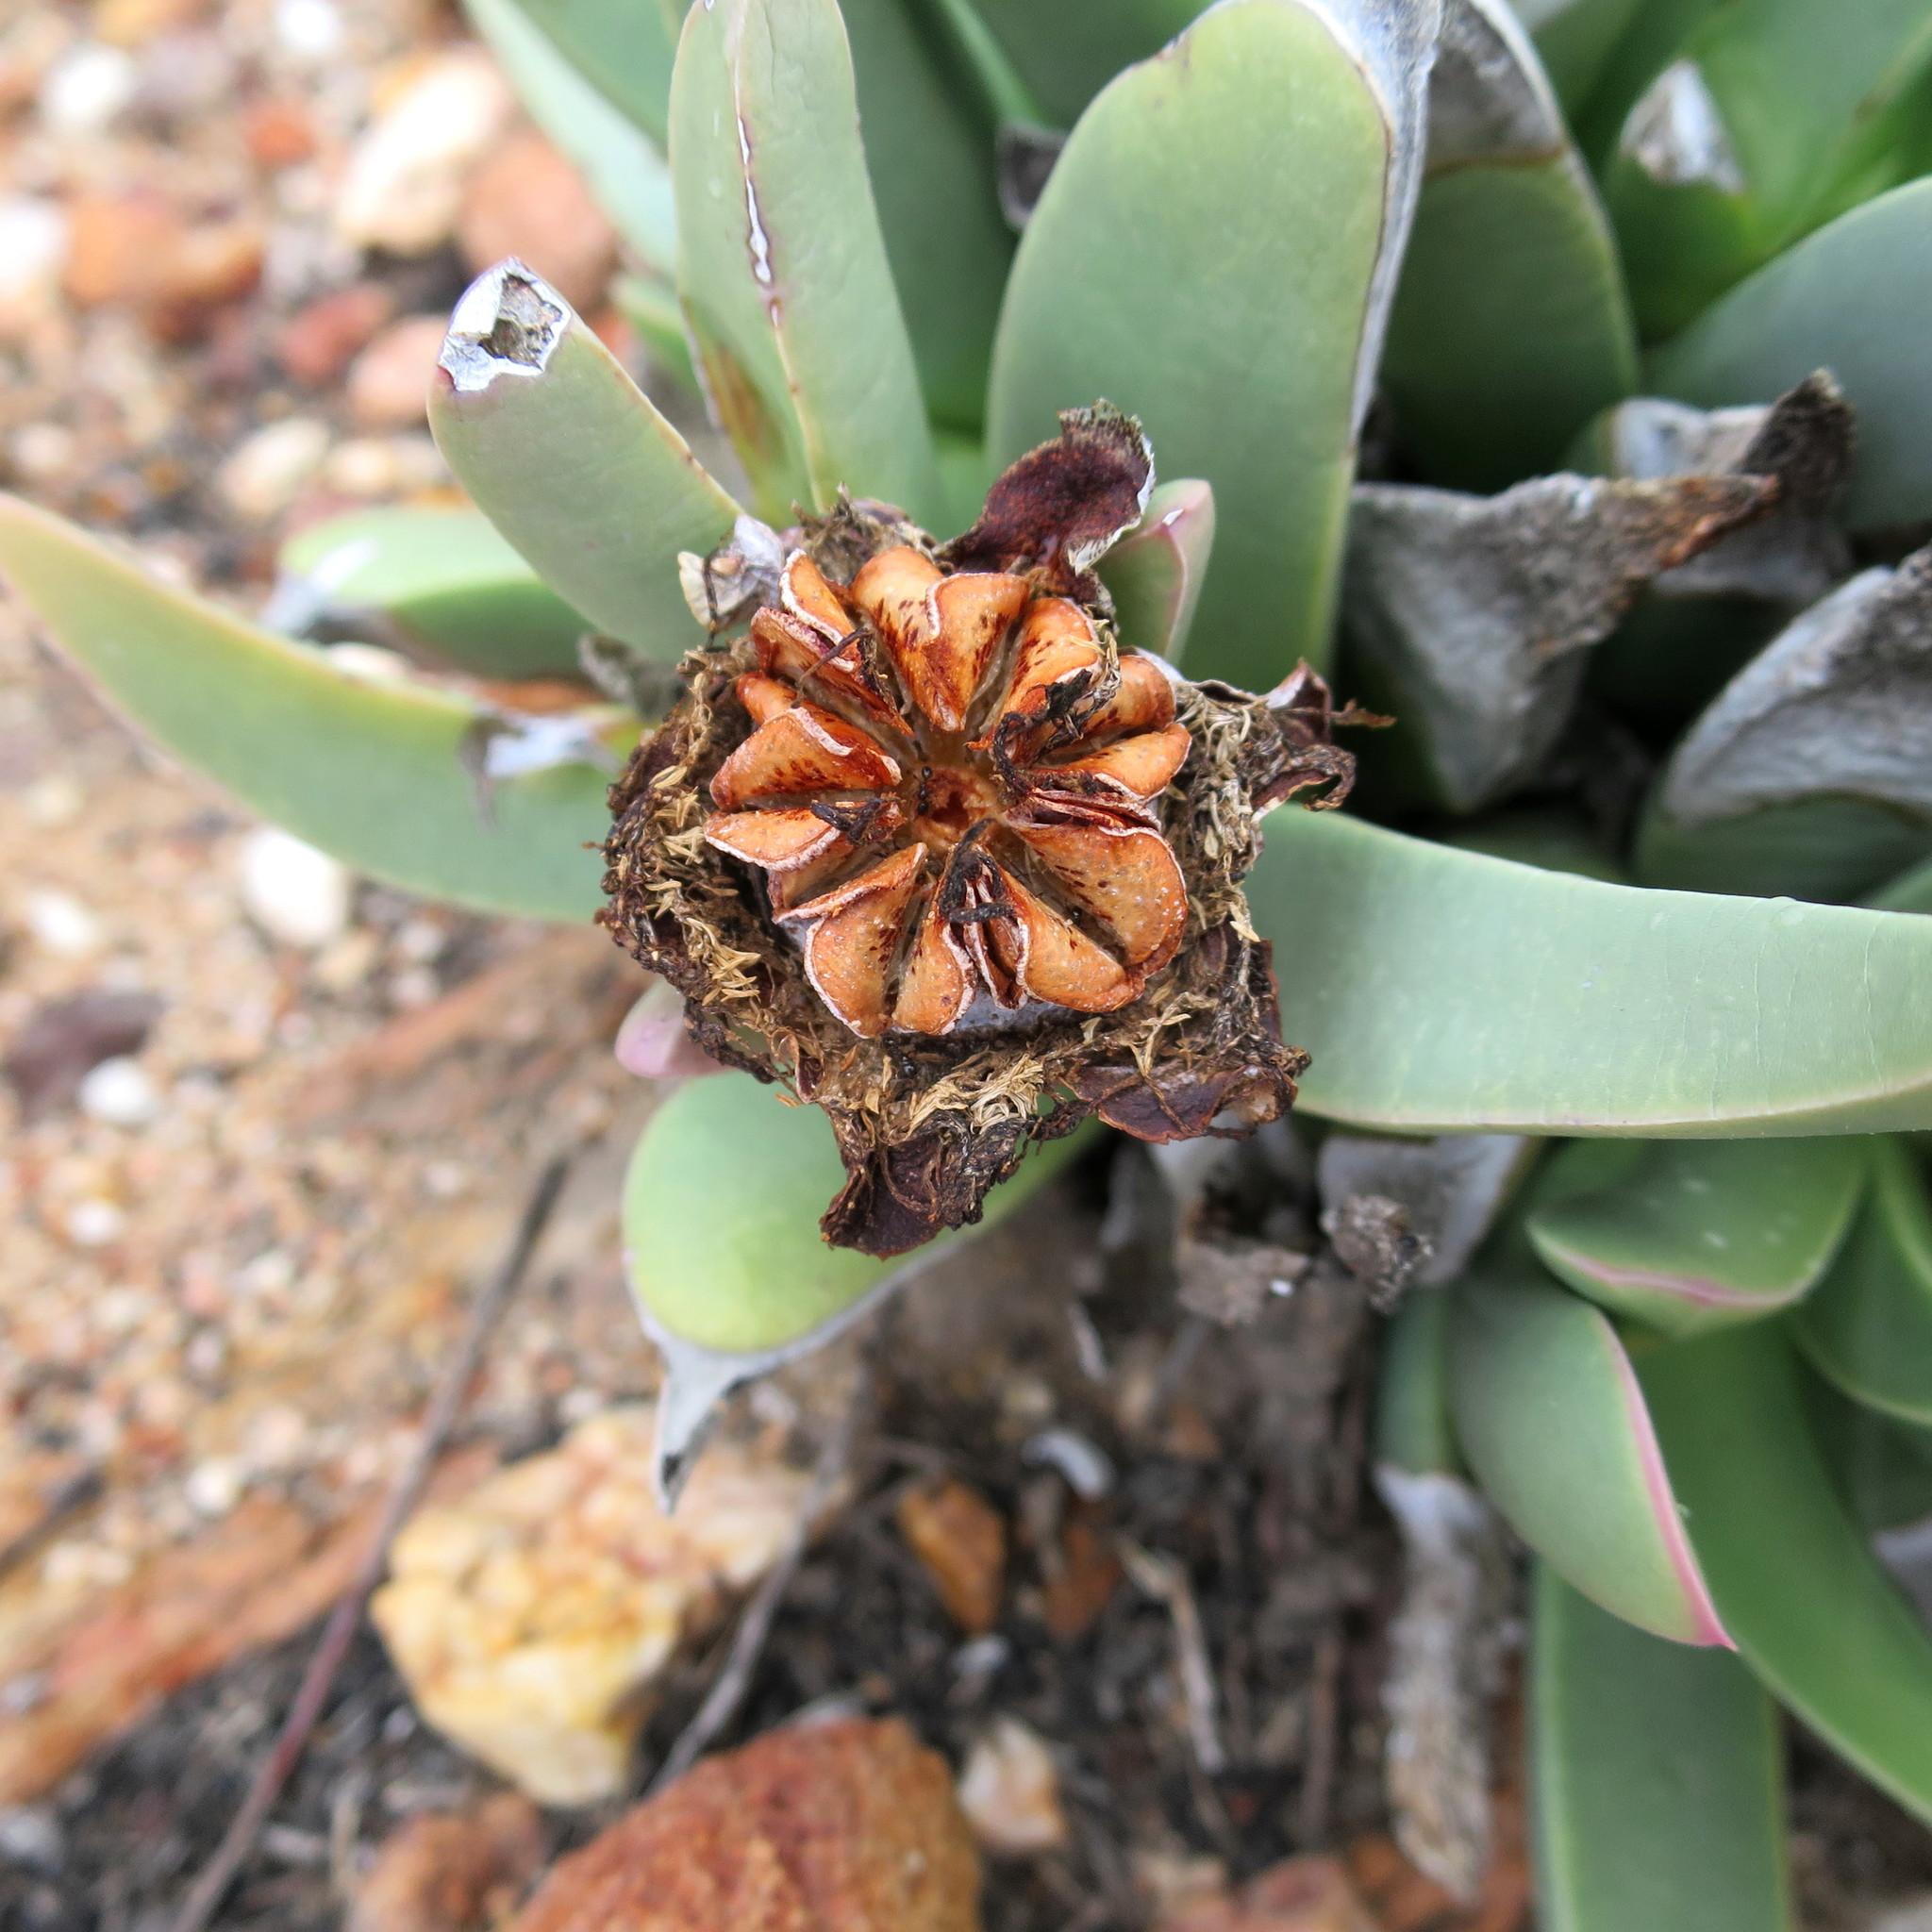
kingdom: Plantae
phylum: Tracheophyta
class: Magnoliopsida
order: Caryophyllales
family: Aizoaceae
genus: Machairophyllum
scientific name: Machairophyllum albidum
